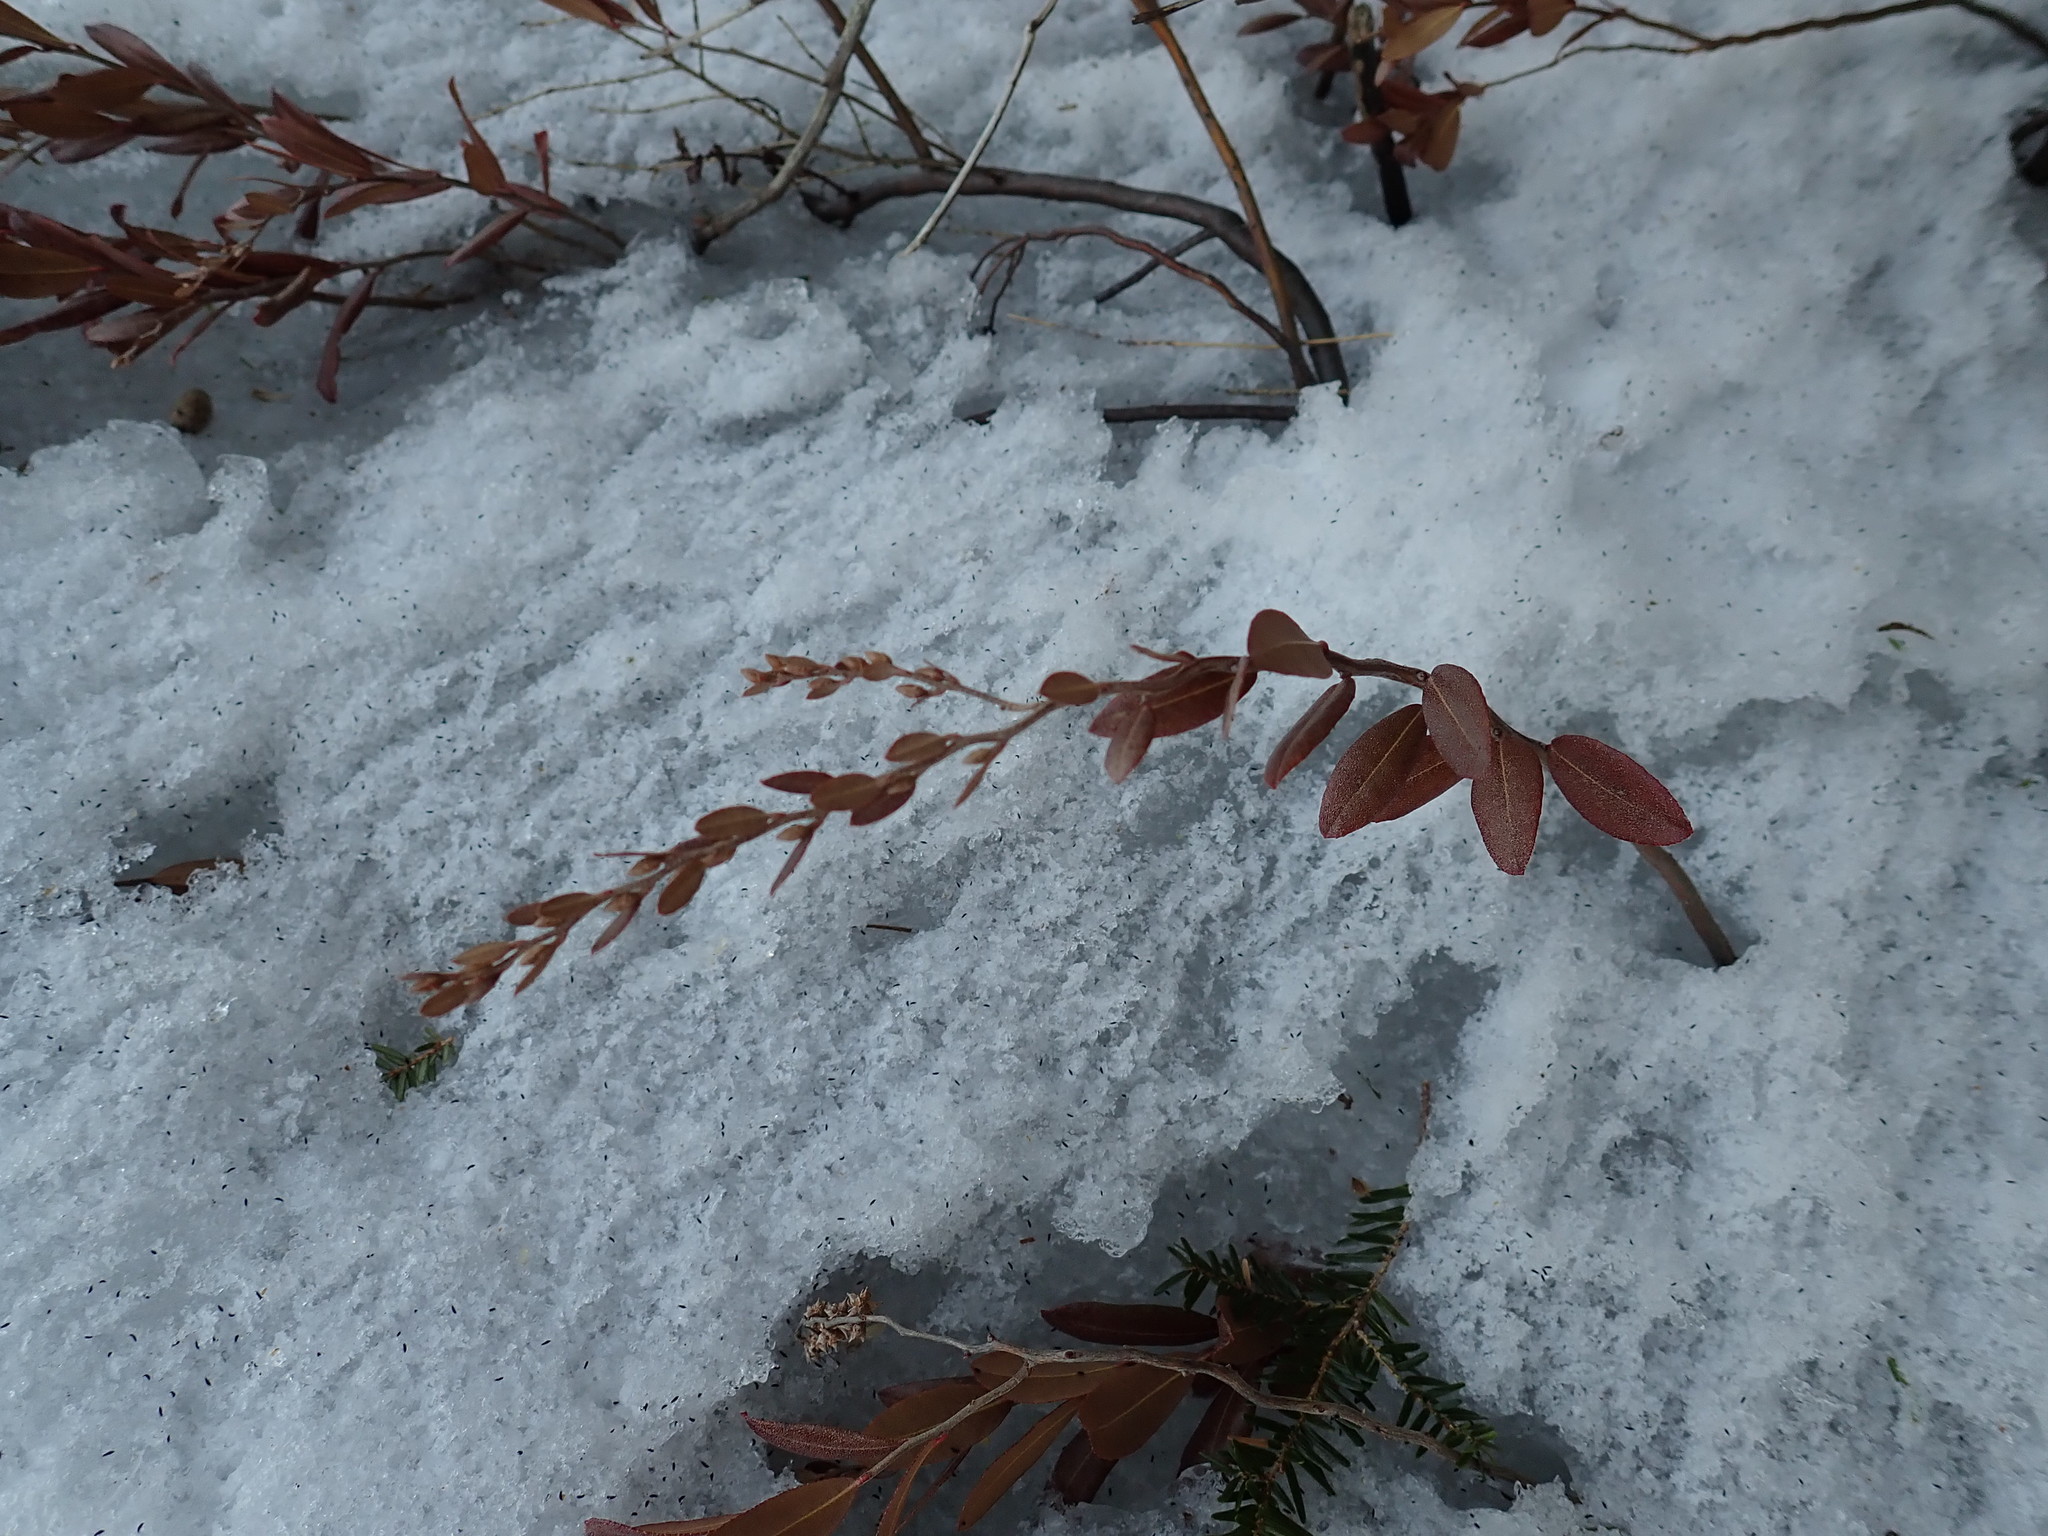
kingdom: Plantae
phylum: Tracheophyta
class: Magnoliopsida
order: Ericales
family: Ericaceae
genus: Chamaedaphne
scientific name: Chamaedaphne calyculata
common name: Leatherleaf
